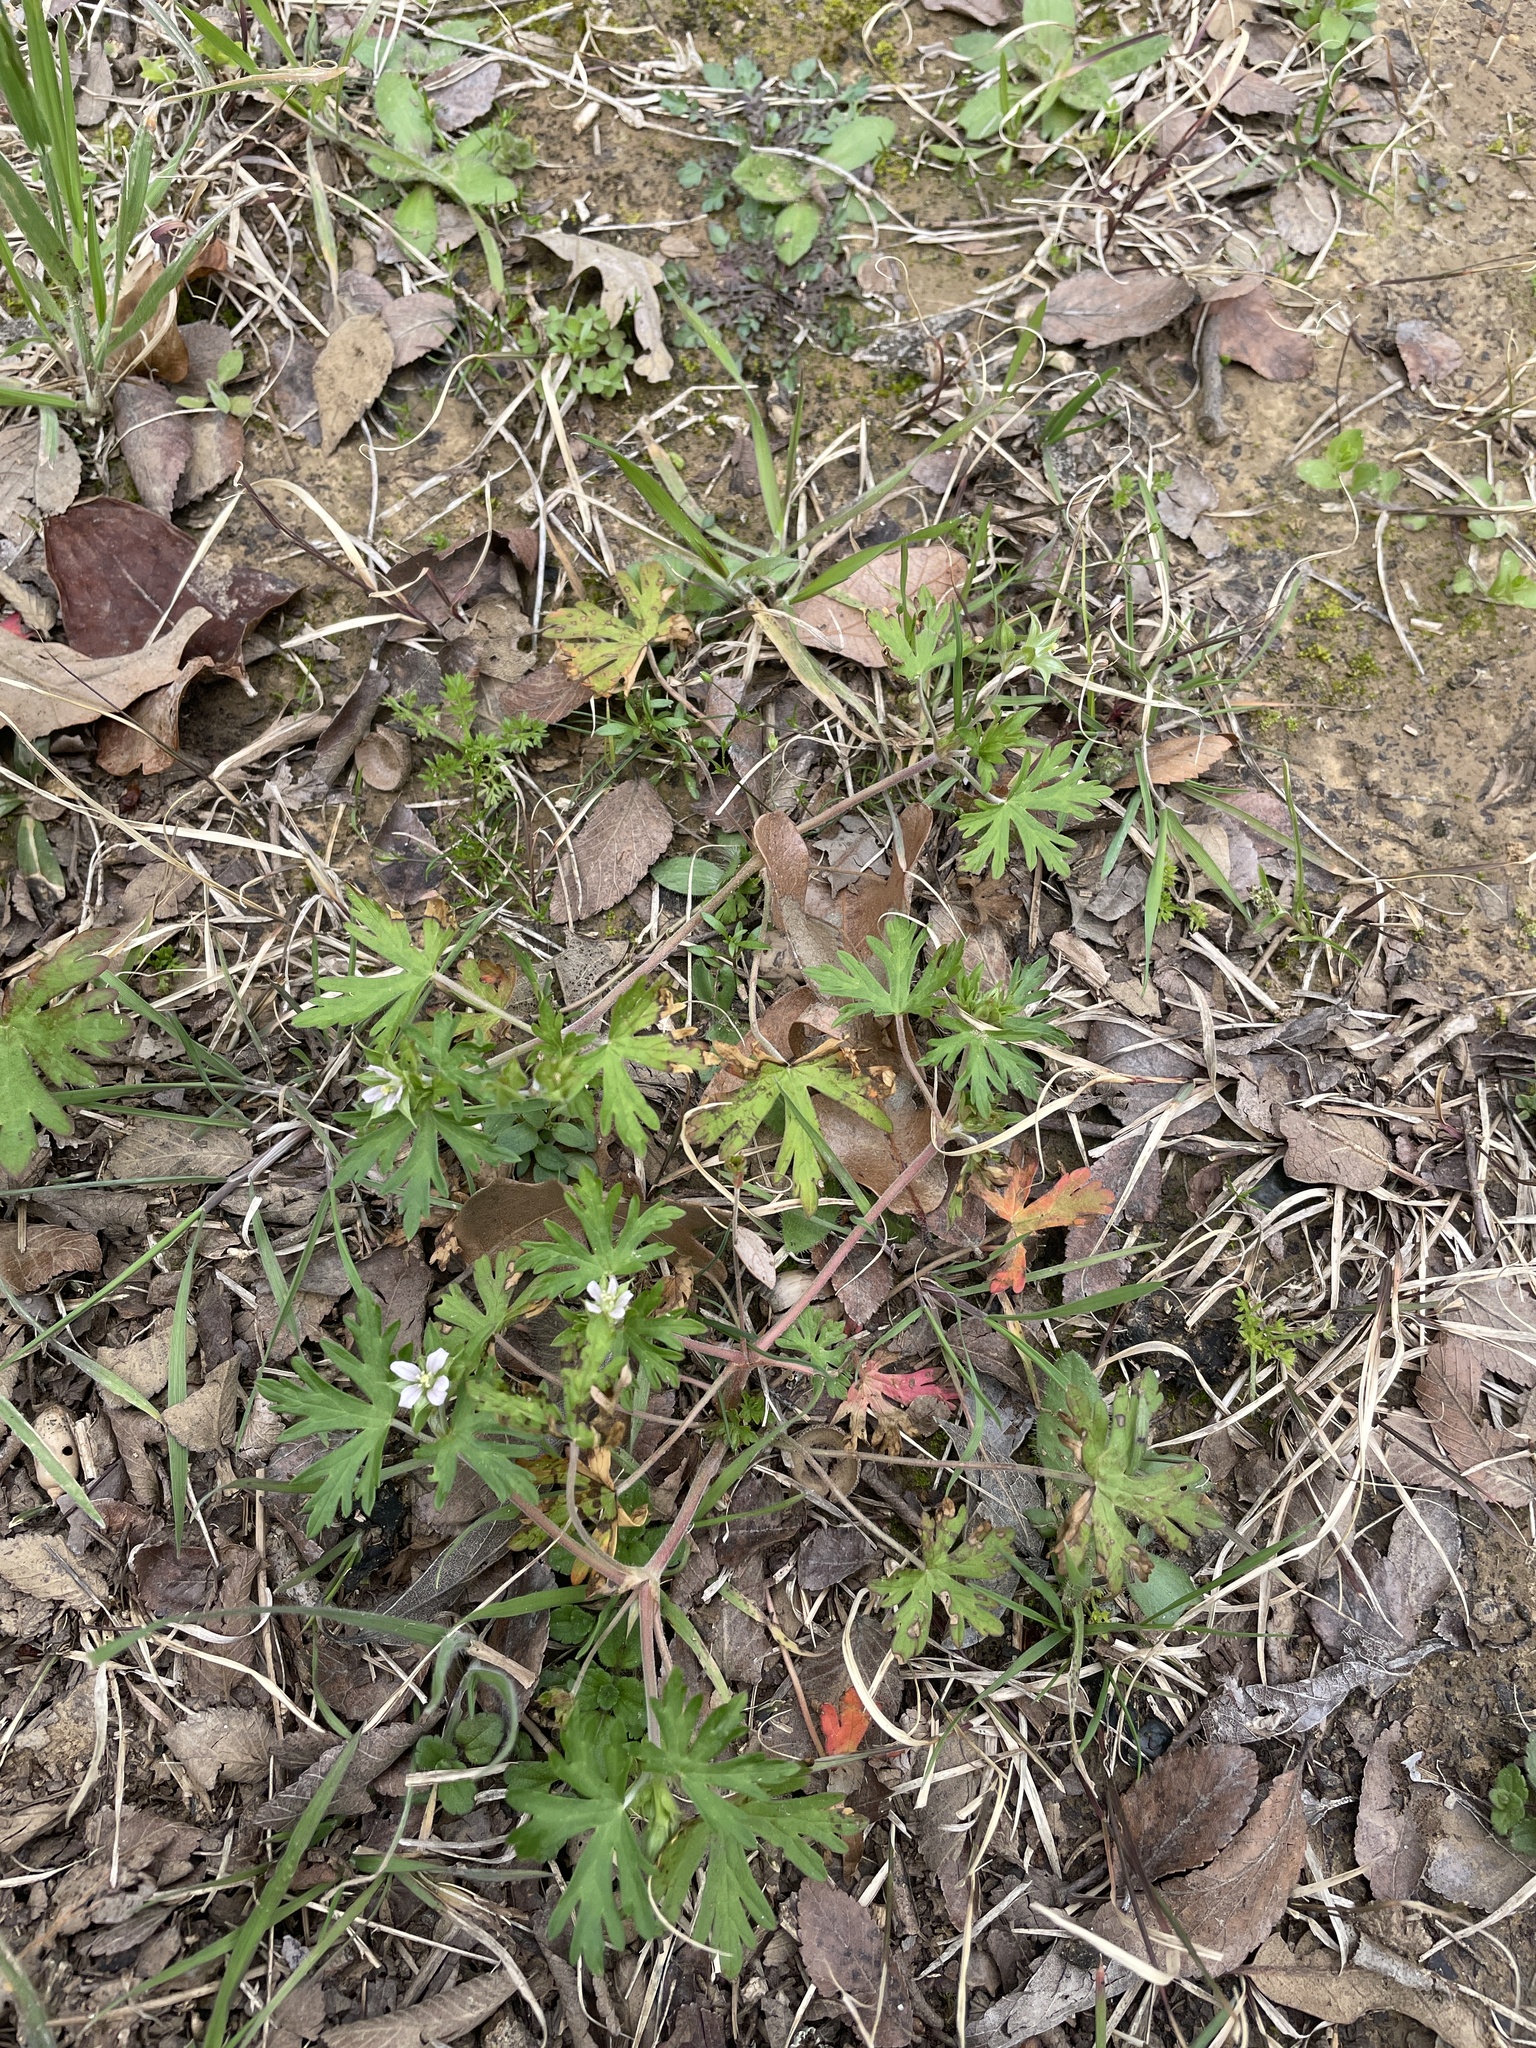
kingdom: Plantae
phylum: Tracheophyta
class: Magnoliopsida
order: Geraniales
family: Geraniaceae
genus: Geranium
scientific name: Geranium carolinianum
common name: Carolina crane's-bill
